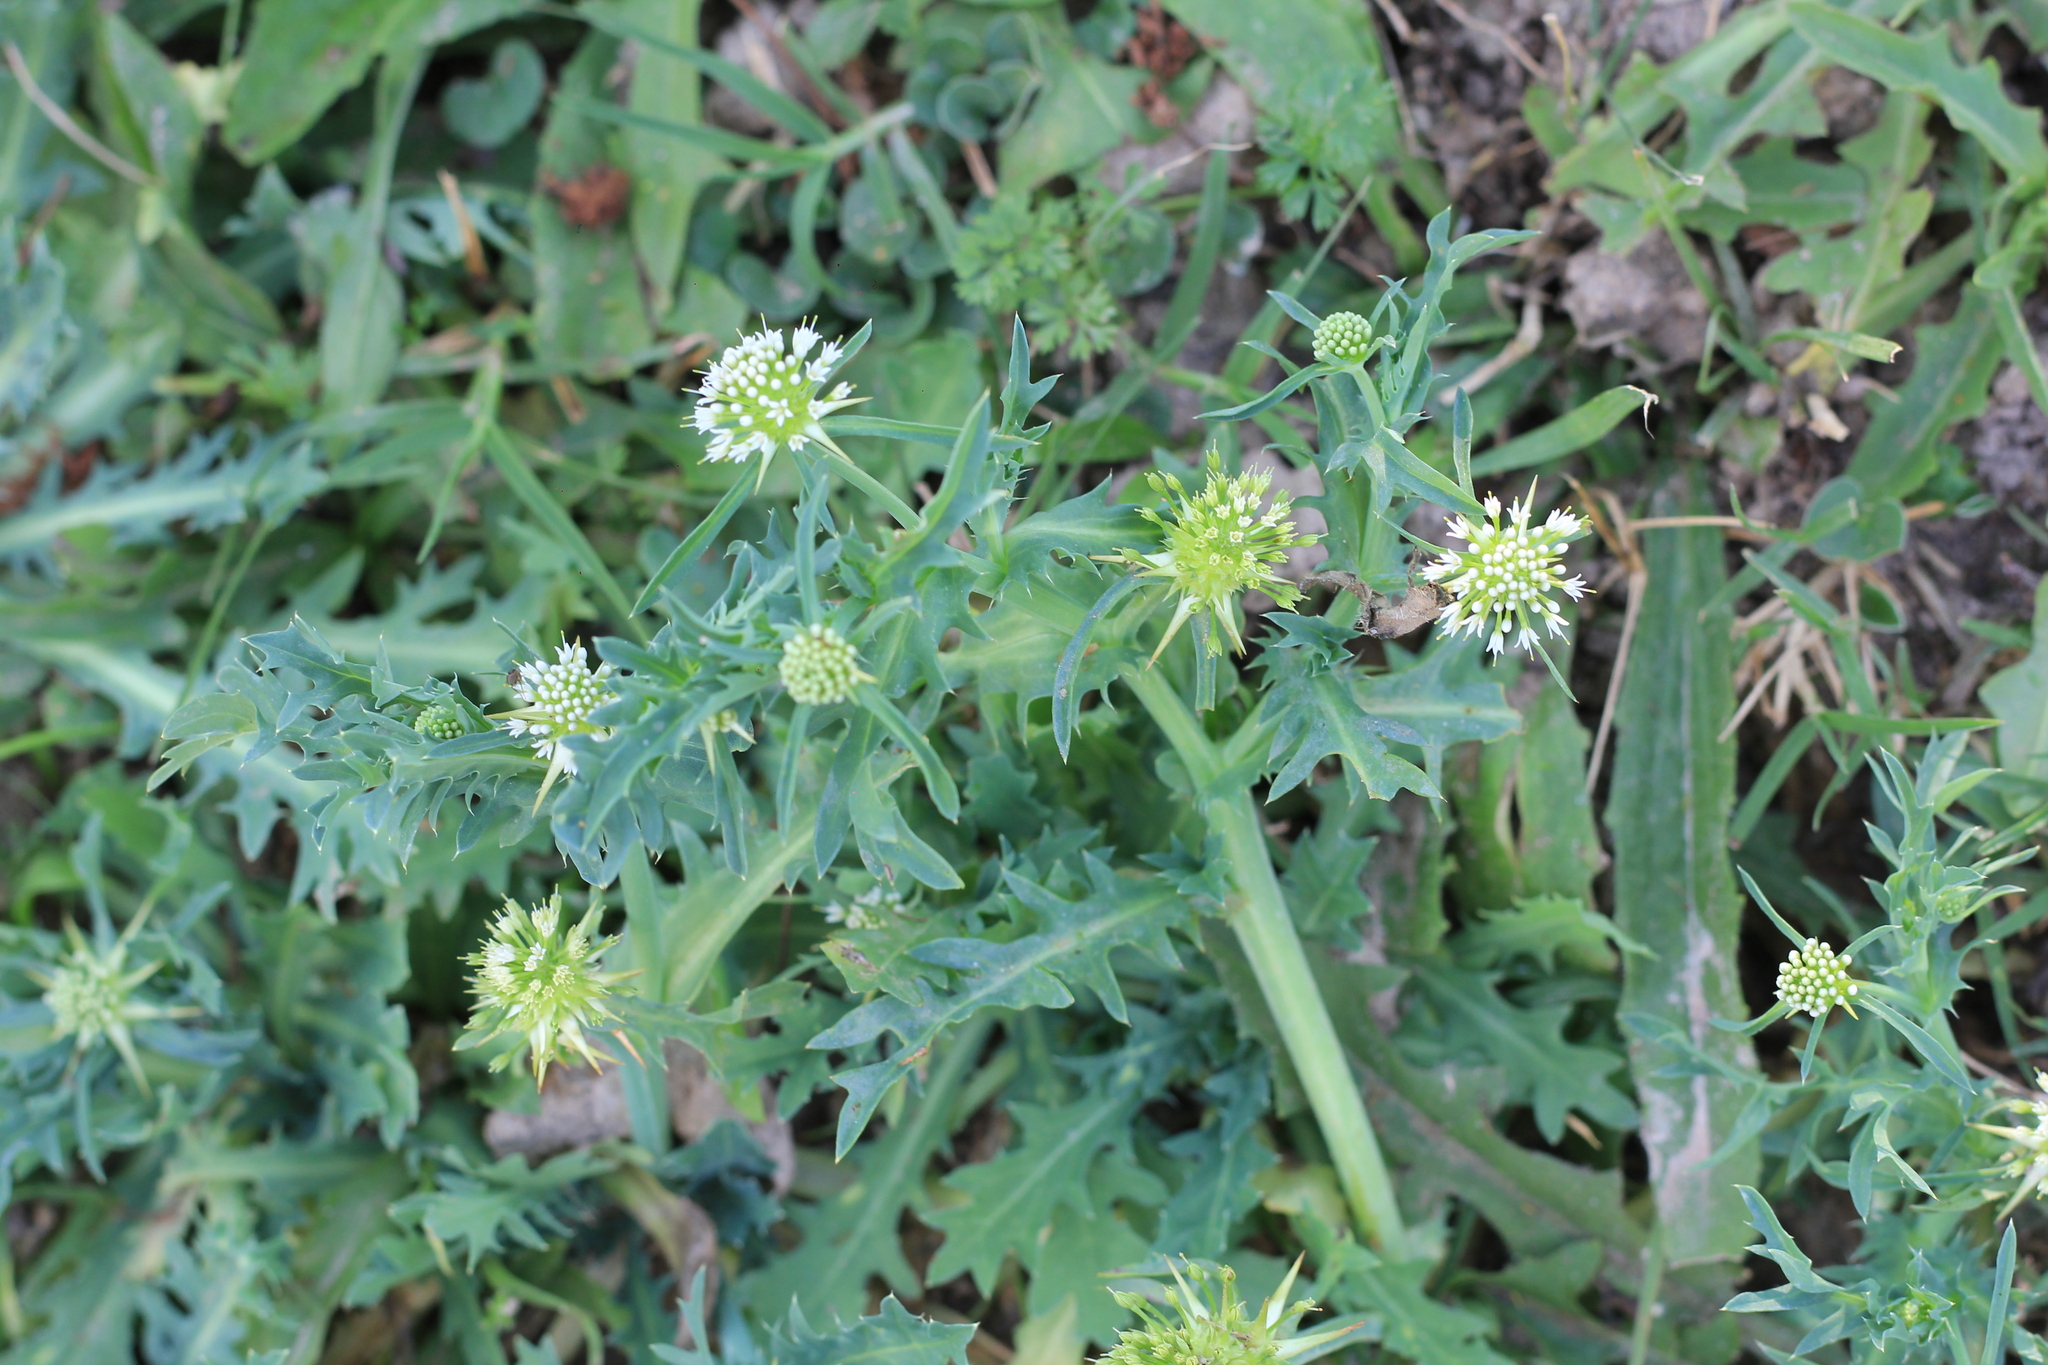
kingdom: Plantae
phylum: Tracheophyta
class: Magnoliopsida
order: Asterales
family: Calyceraceae
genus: Acicarpha
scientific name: Acicarpha tribuloides
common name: Madam gorgon
